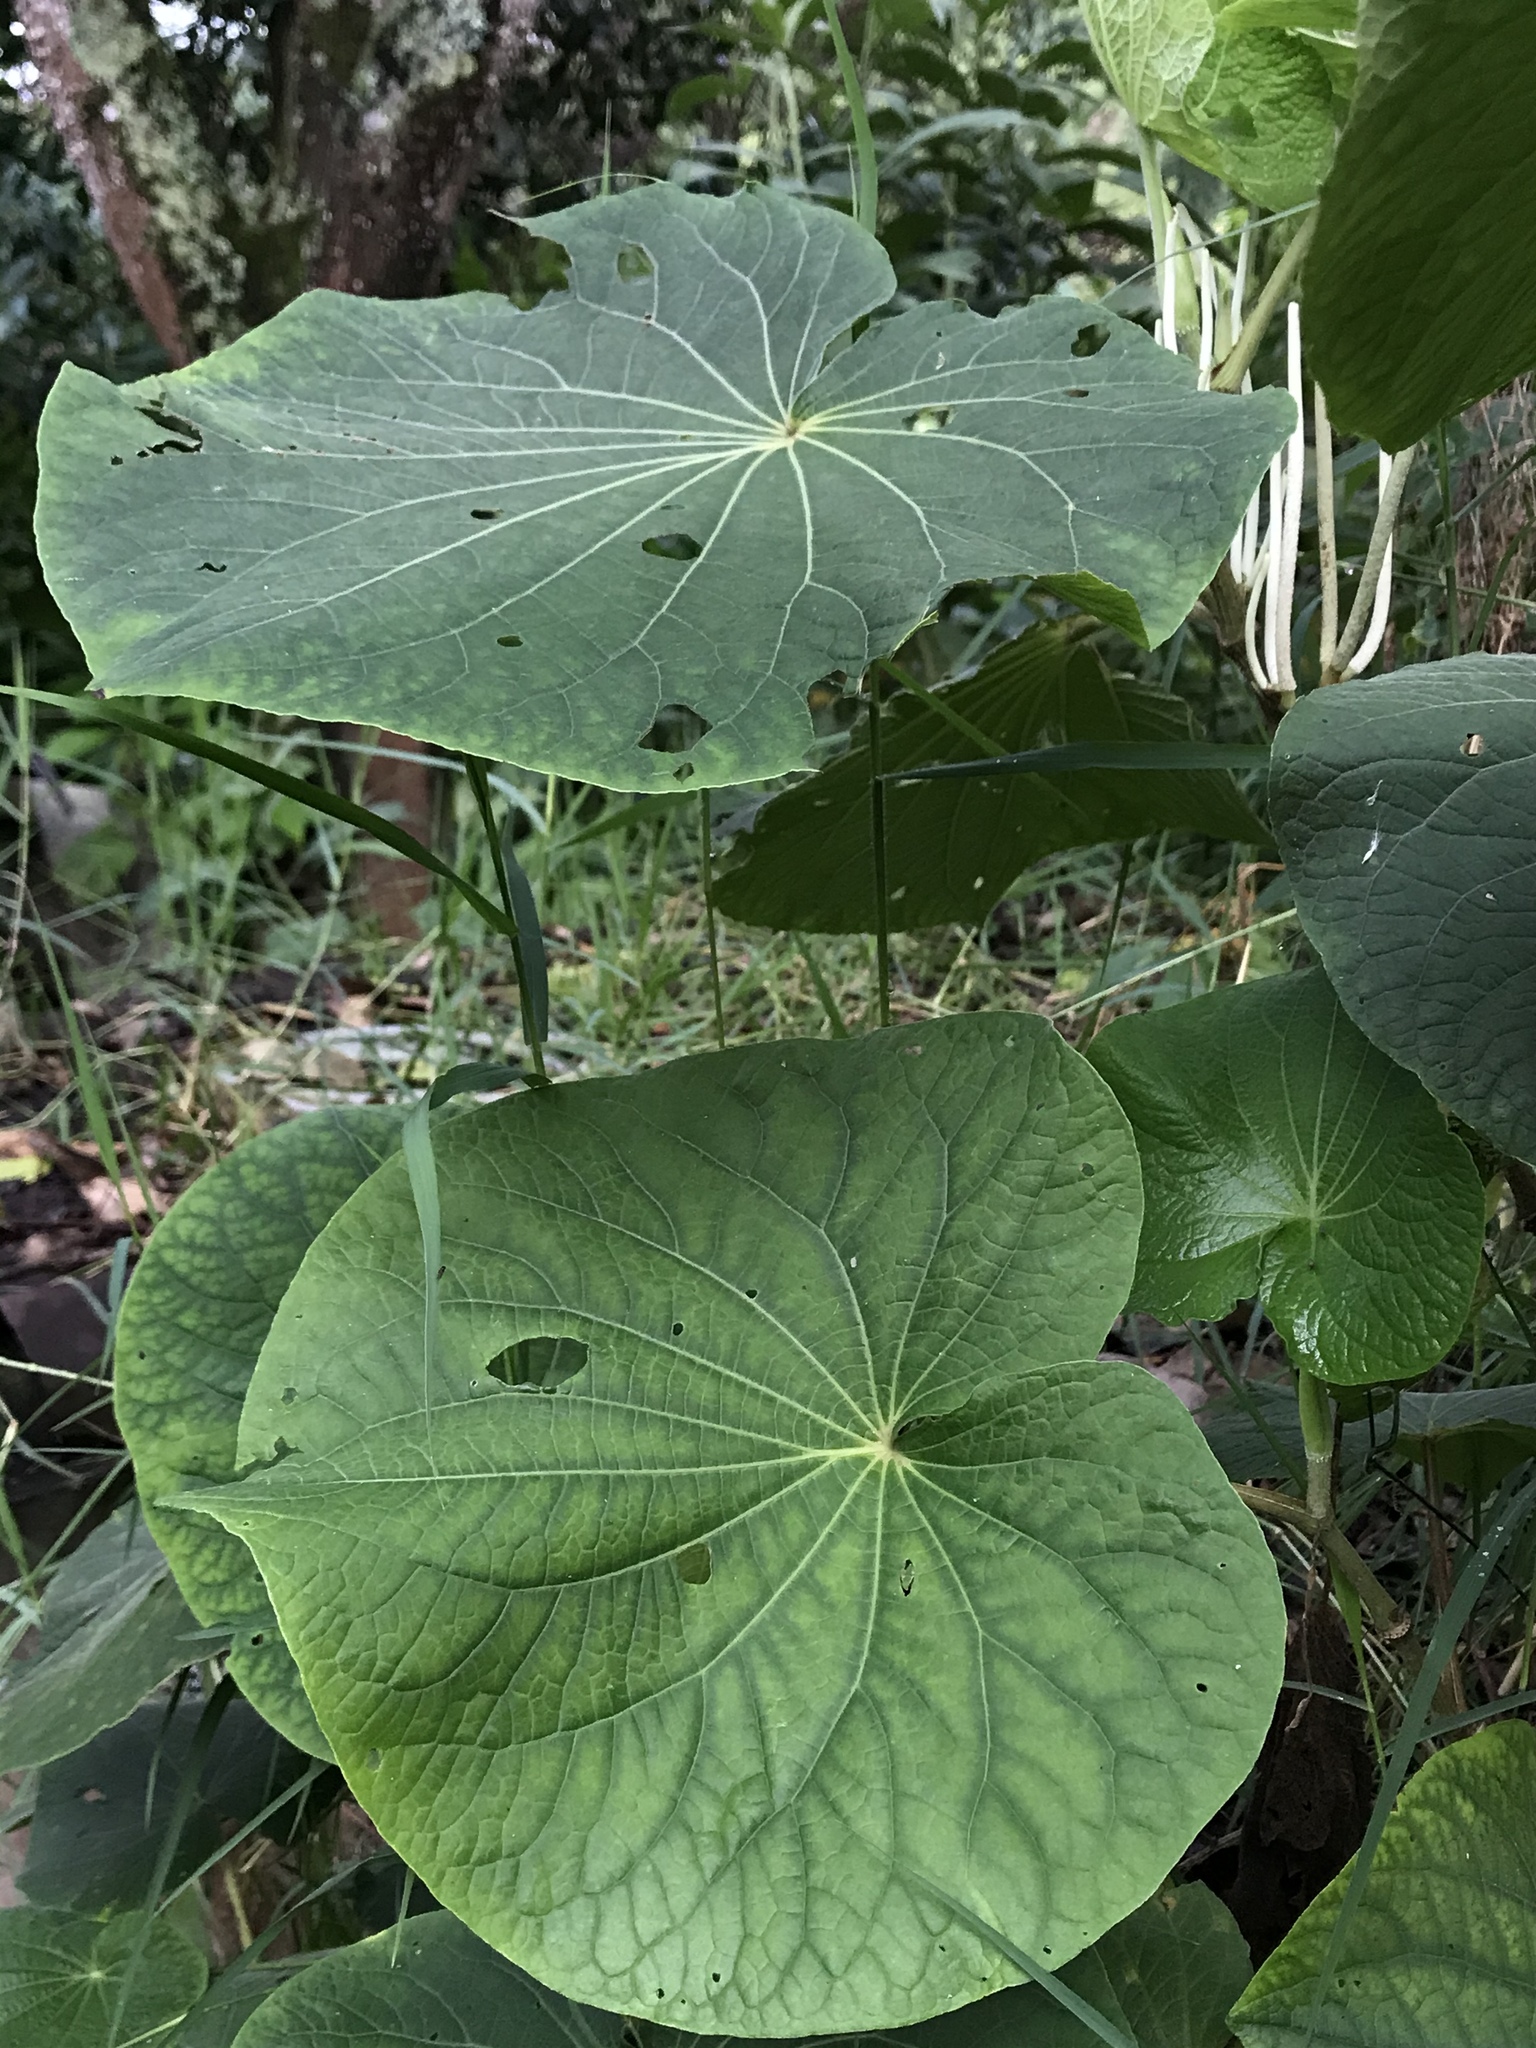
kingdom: Plantae
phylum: Tracheophyta
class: Magnoliopsida
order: Piperales
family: Piperaceae
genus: Piper
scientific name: Piper umbellatum
